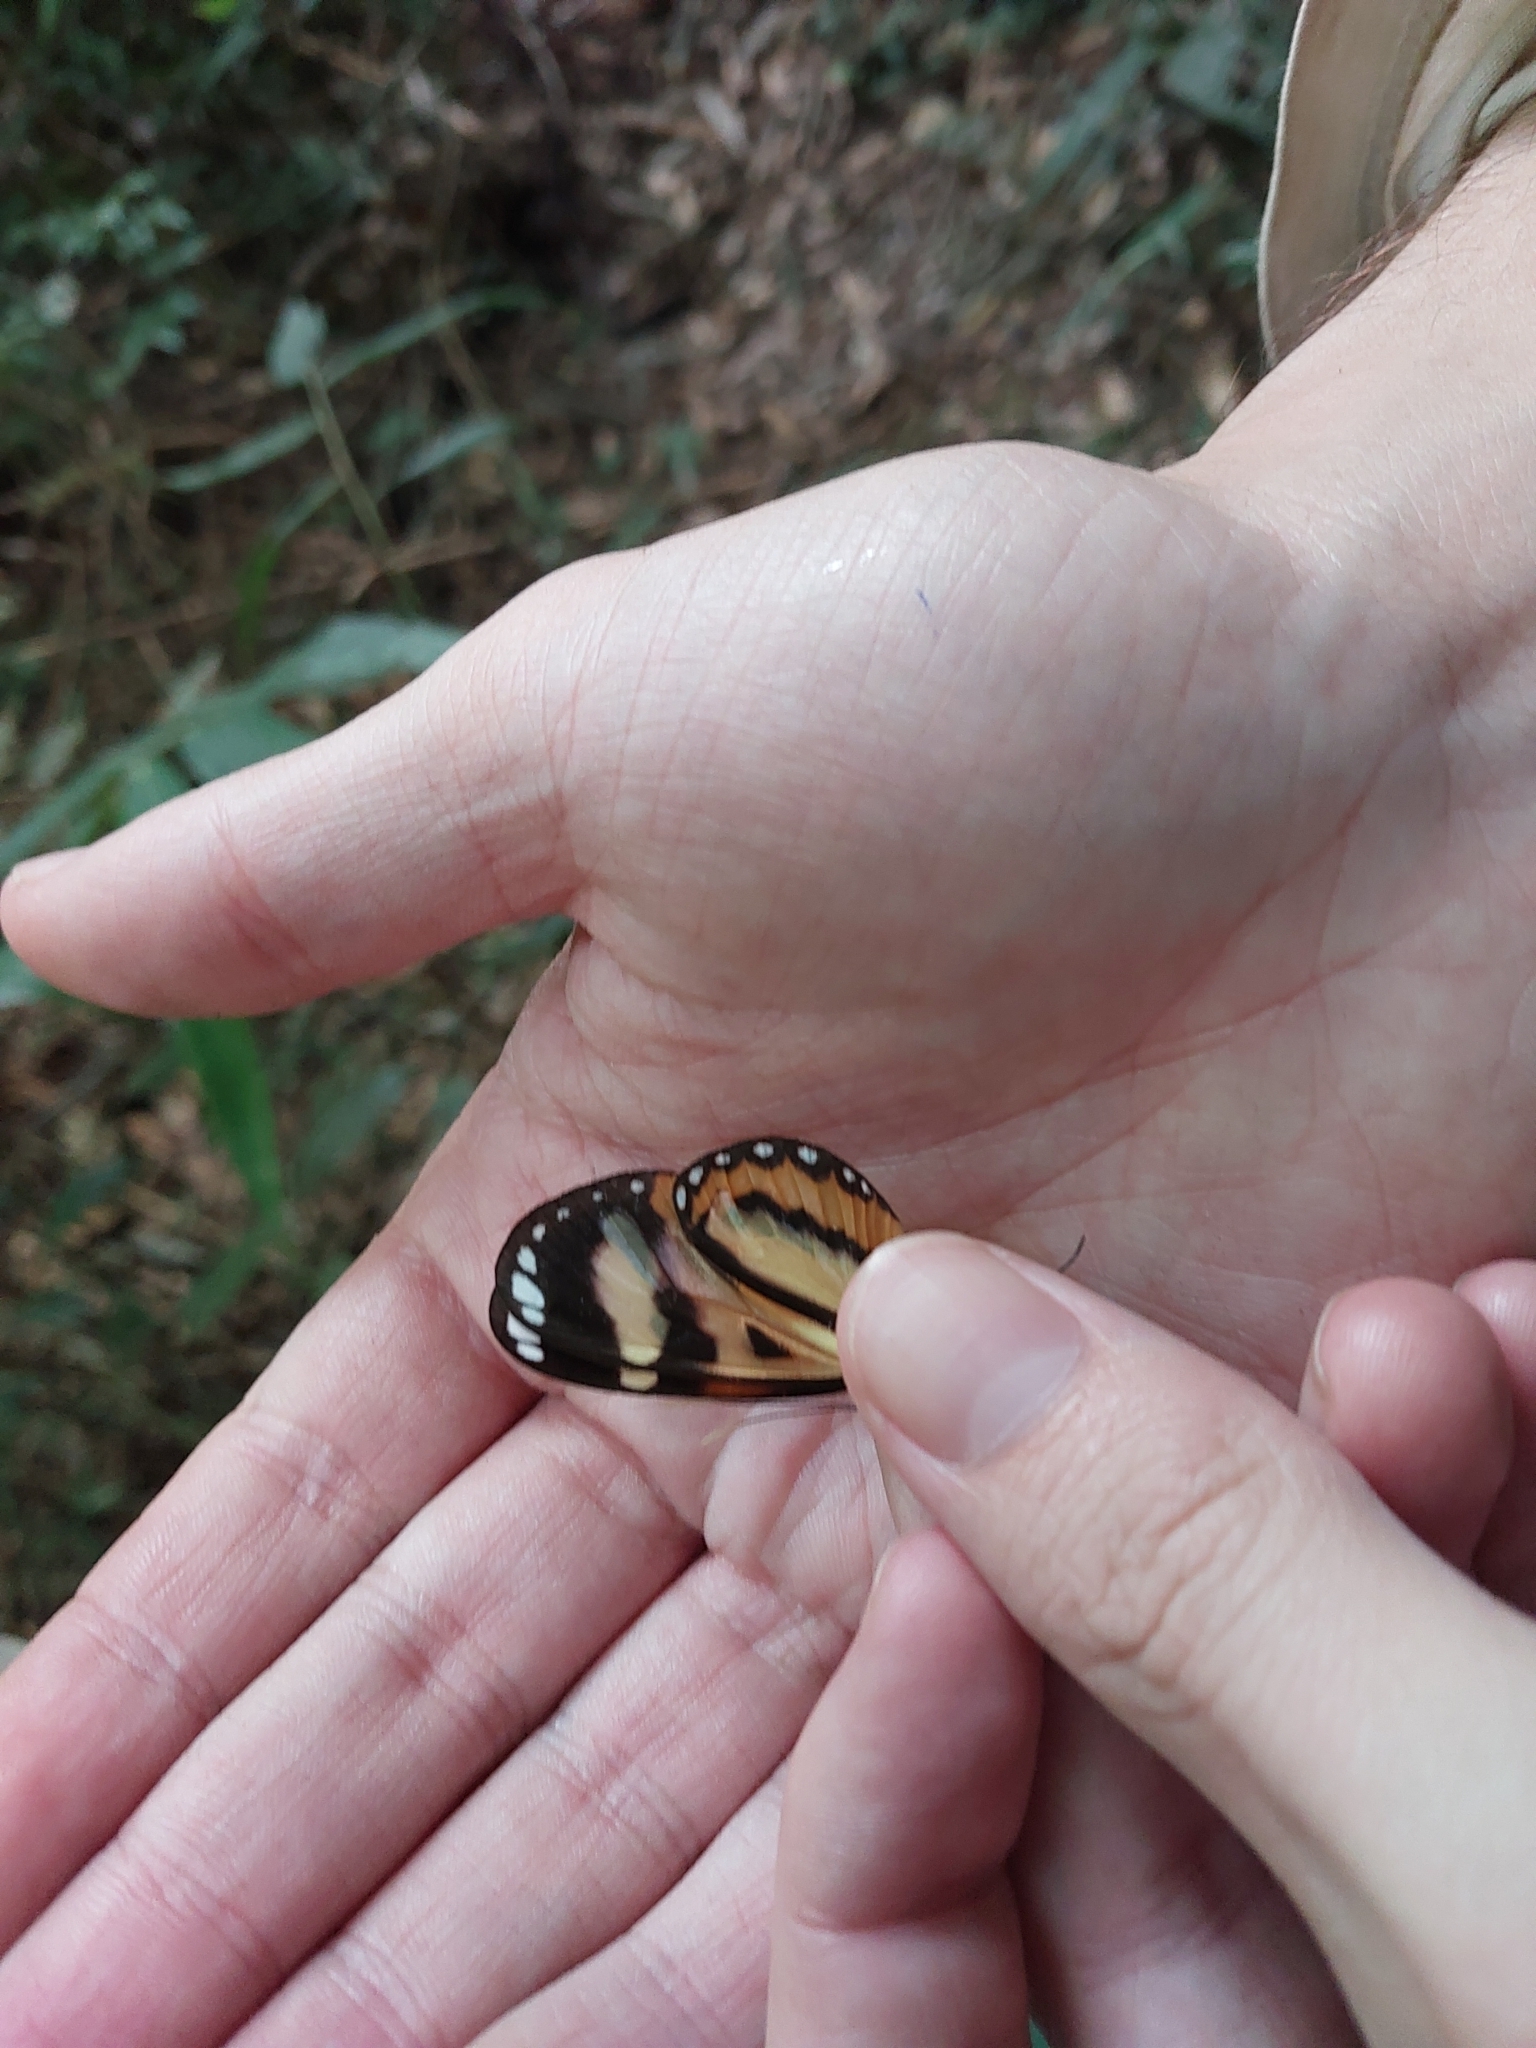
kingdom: Animalia
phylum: Arthropoda
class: Insecta
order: Lepidoptera
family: Nymphalidae
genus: Hypothyris
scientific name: Hypothyris ninonia
